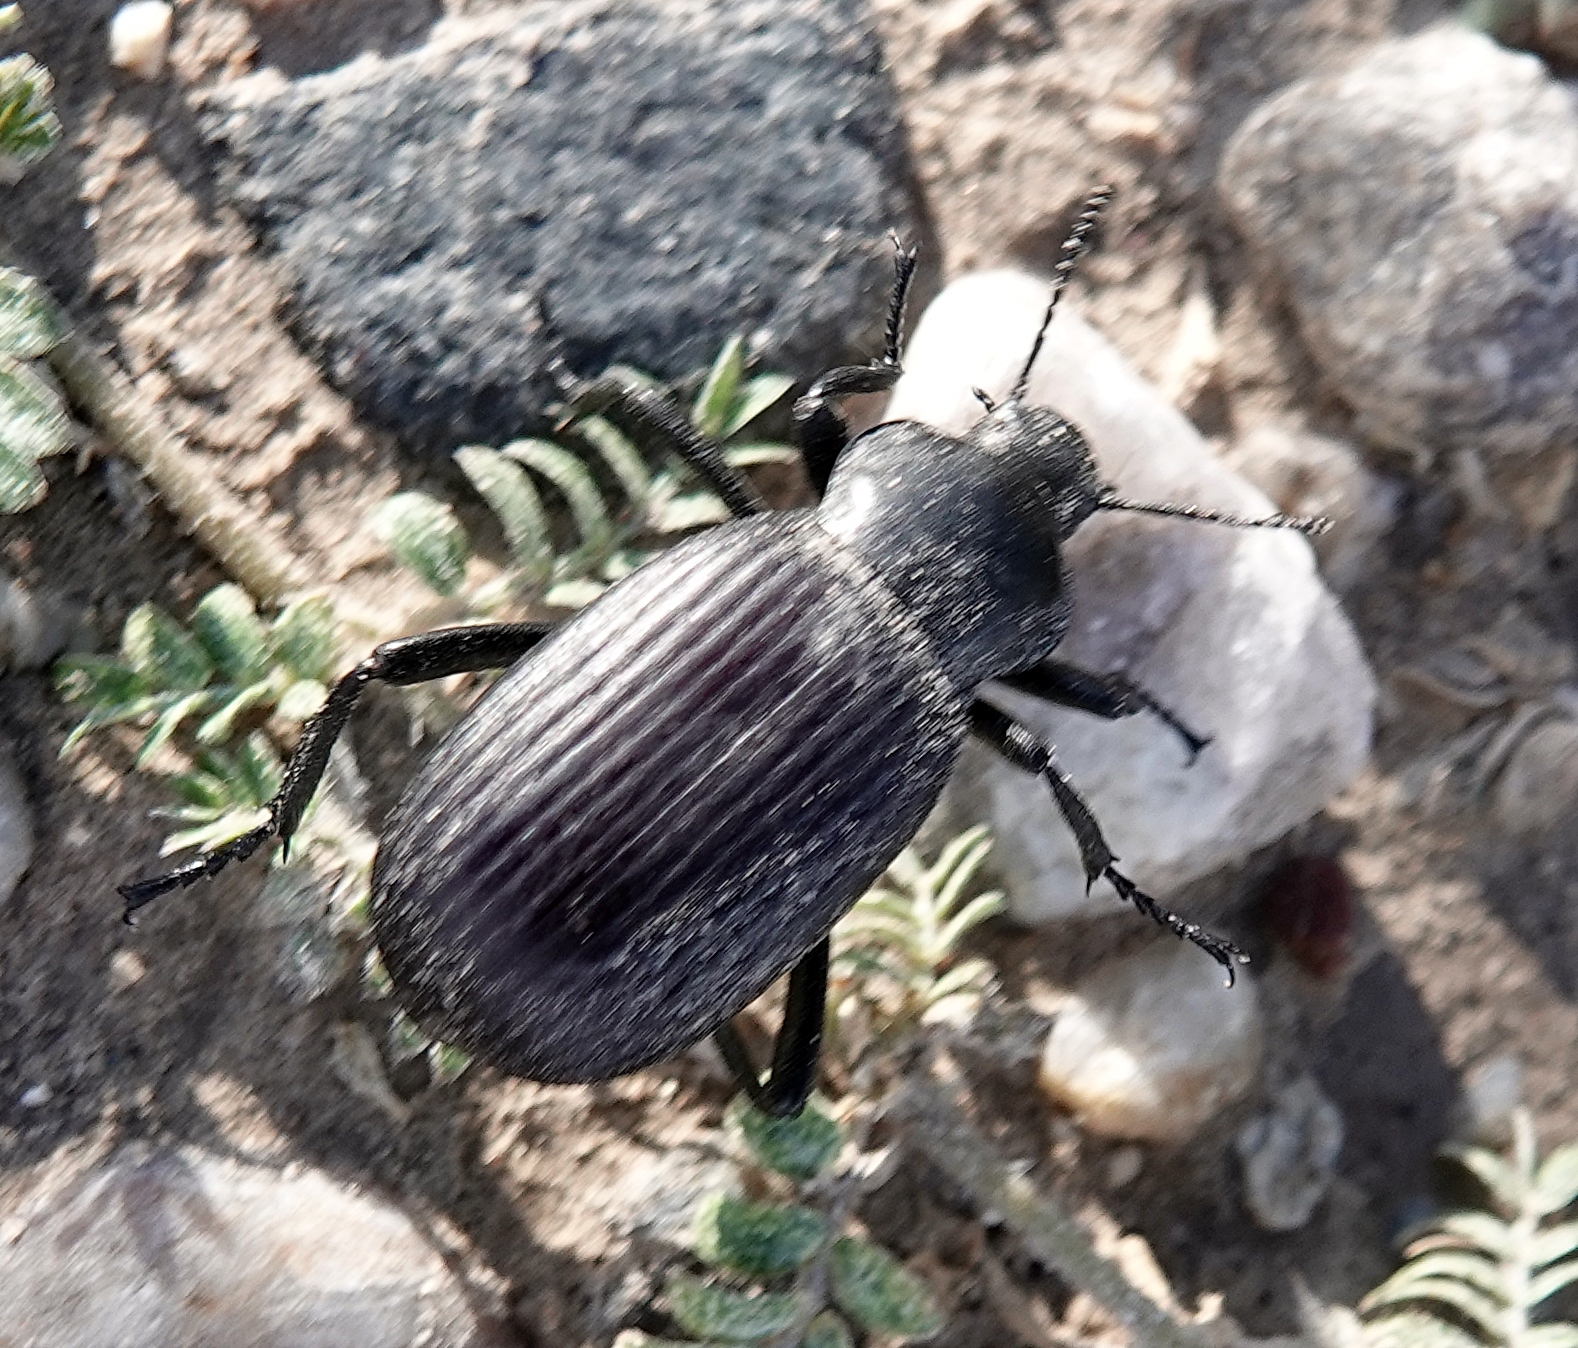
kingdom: Animalia
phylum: Arthropoda
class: Insecta
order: Coleoptera
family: Tenebrionidae
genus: Eleodes
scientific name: Eleodes obscura
